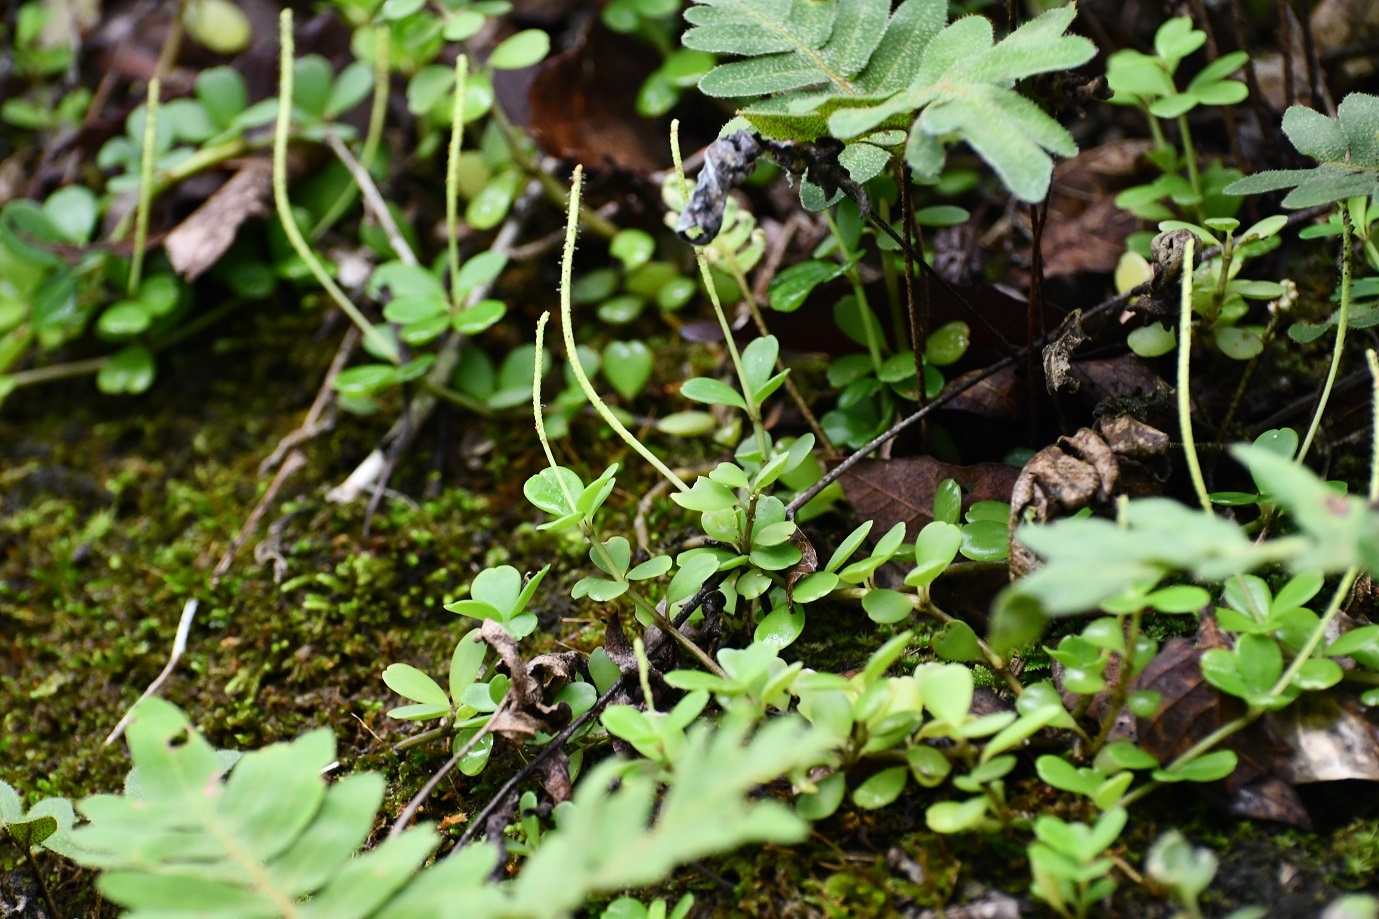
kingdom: Plantae
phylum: Tracheophyta
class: Magnoliopsida
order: Piperales
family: Piperaceae
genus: Peperomia
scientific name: Peperomia quadrifolia
